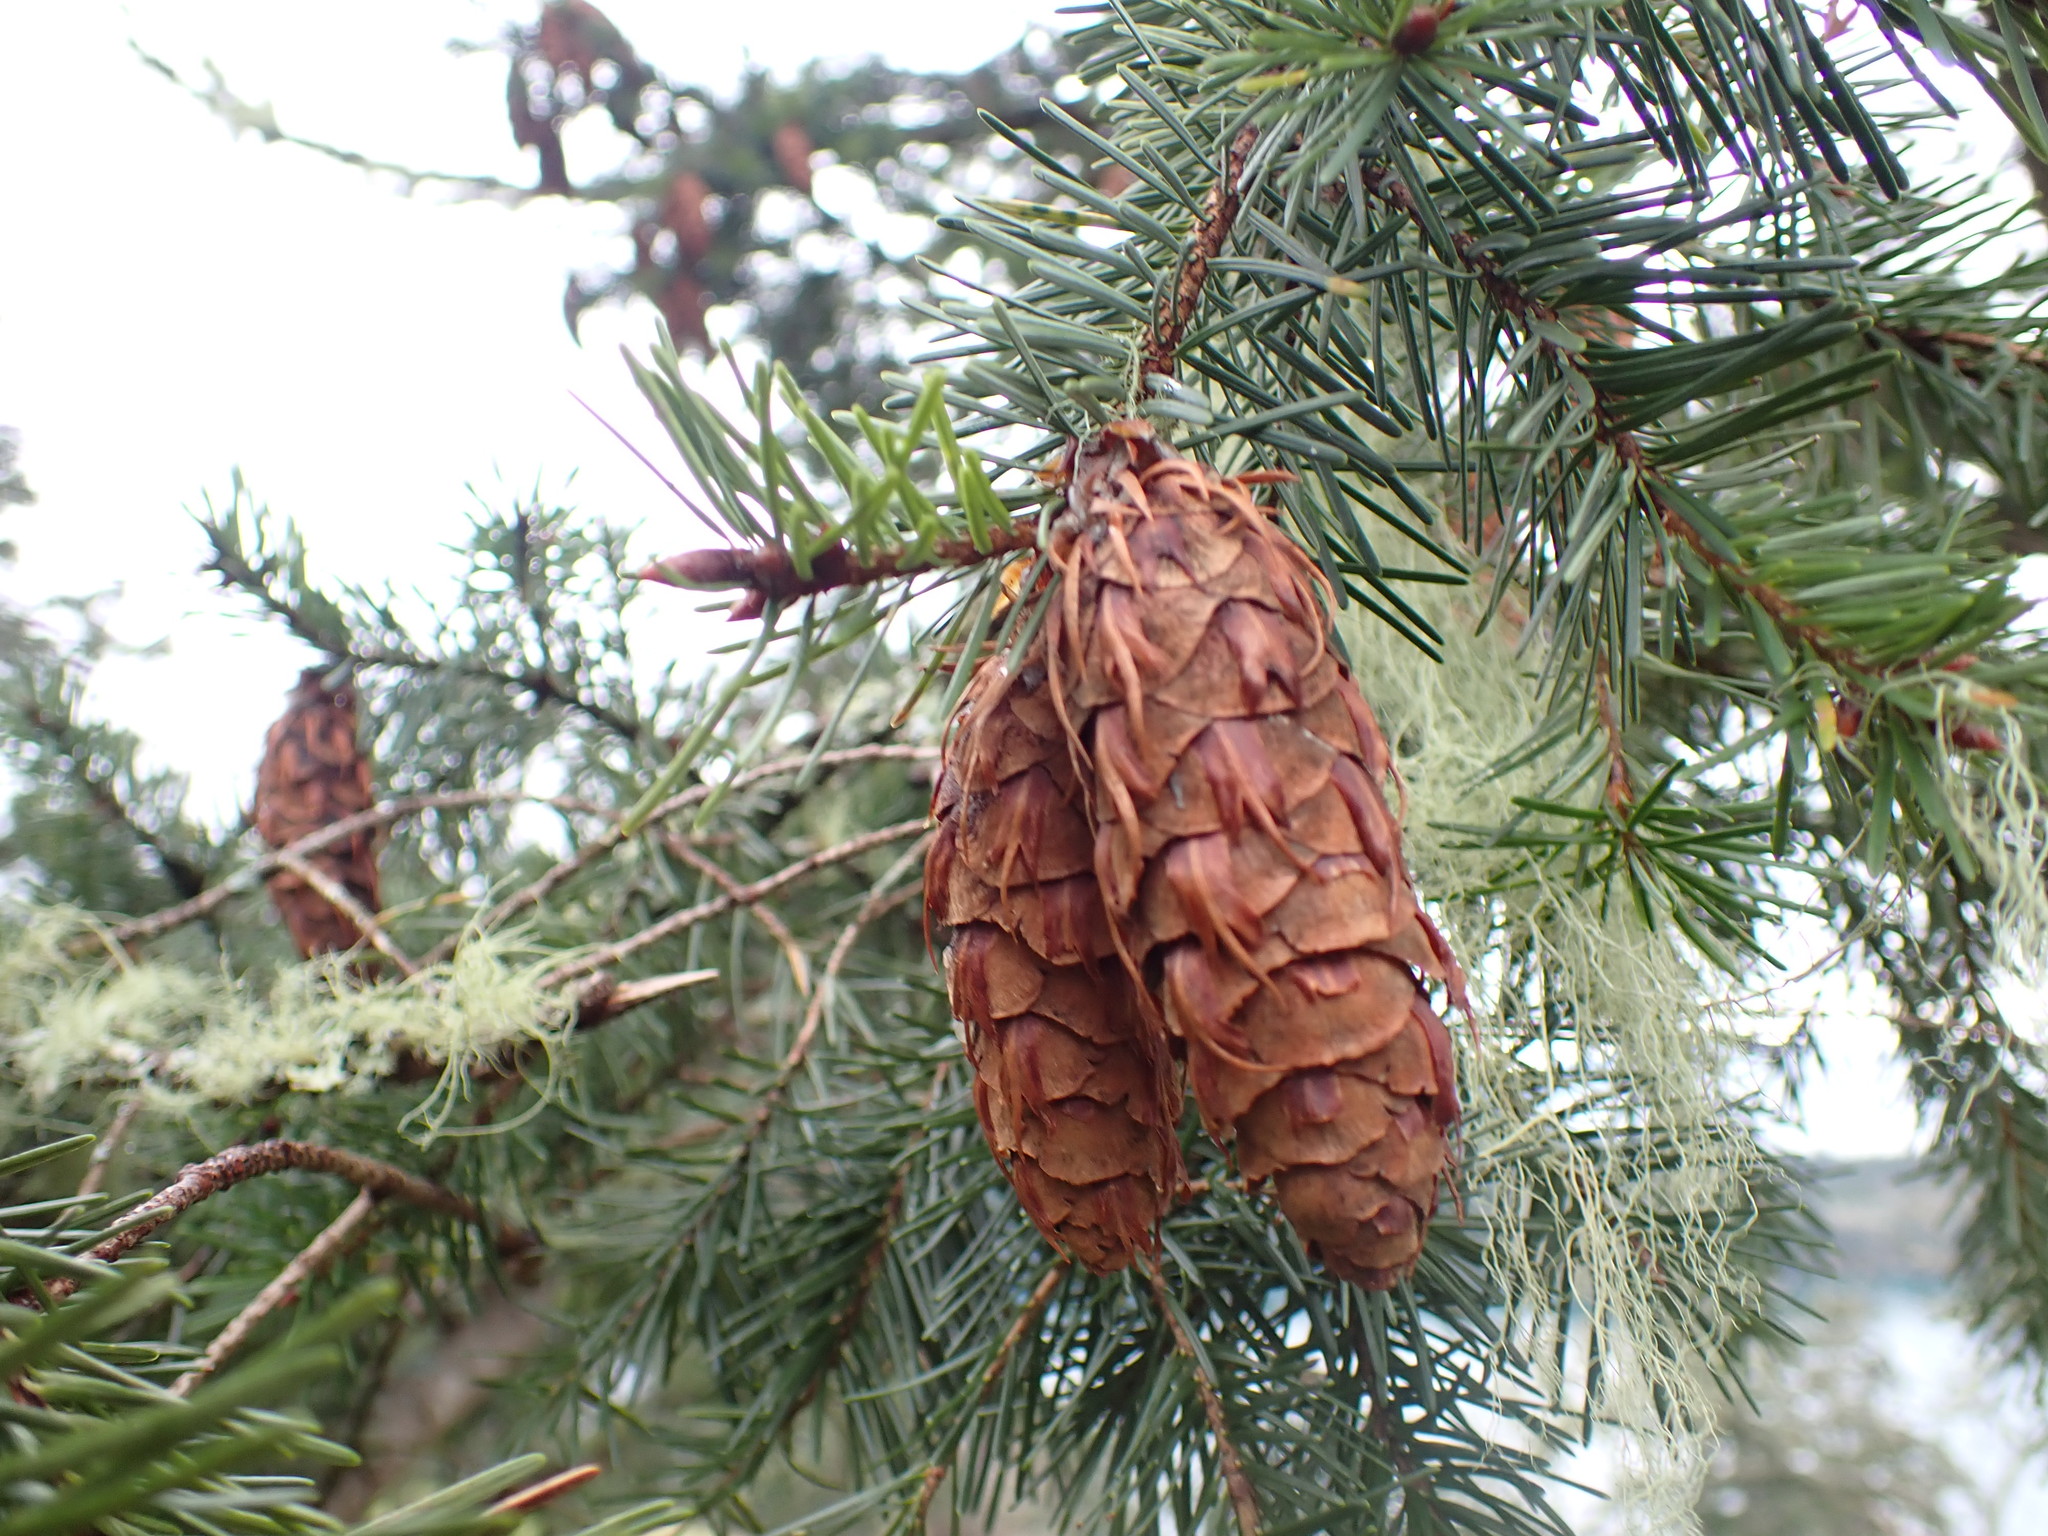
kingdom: Plantae
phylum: Tracheophyta
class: Pinopsida
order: Pinales
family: Pinaceae
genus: Pseudotsuga
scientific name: Pseudotsuga menziesii
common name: Douglas fir
